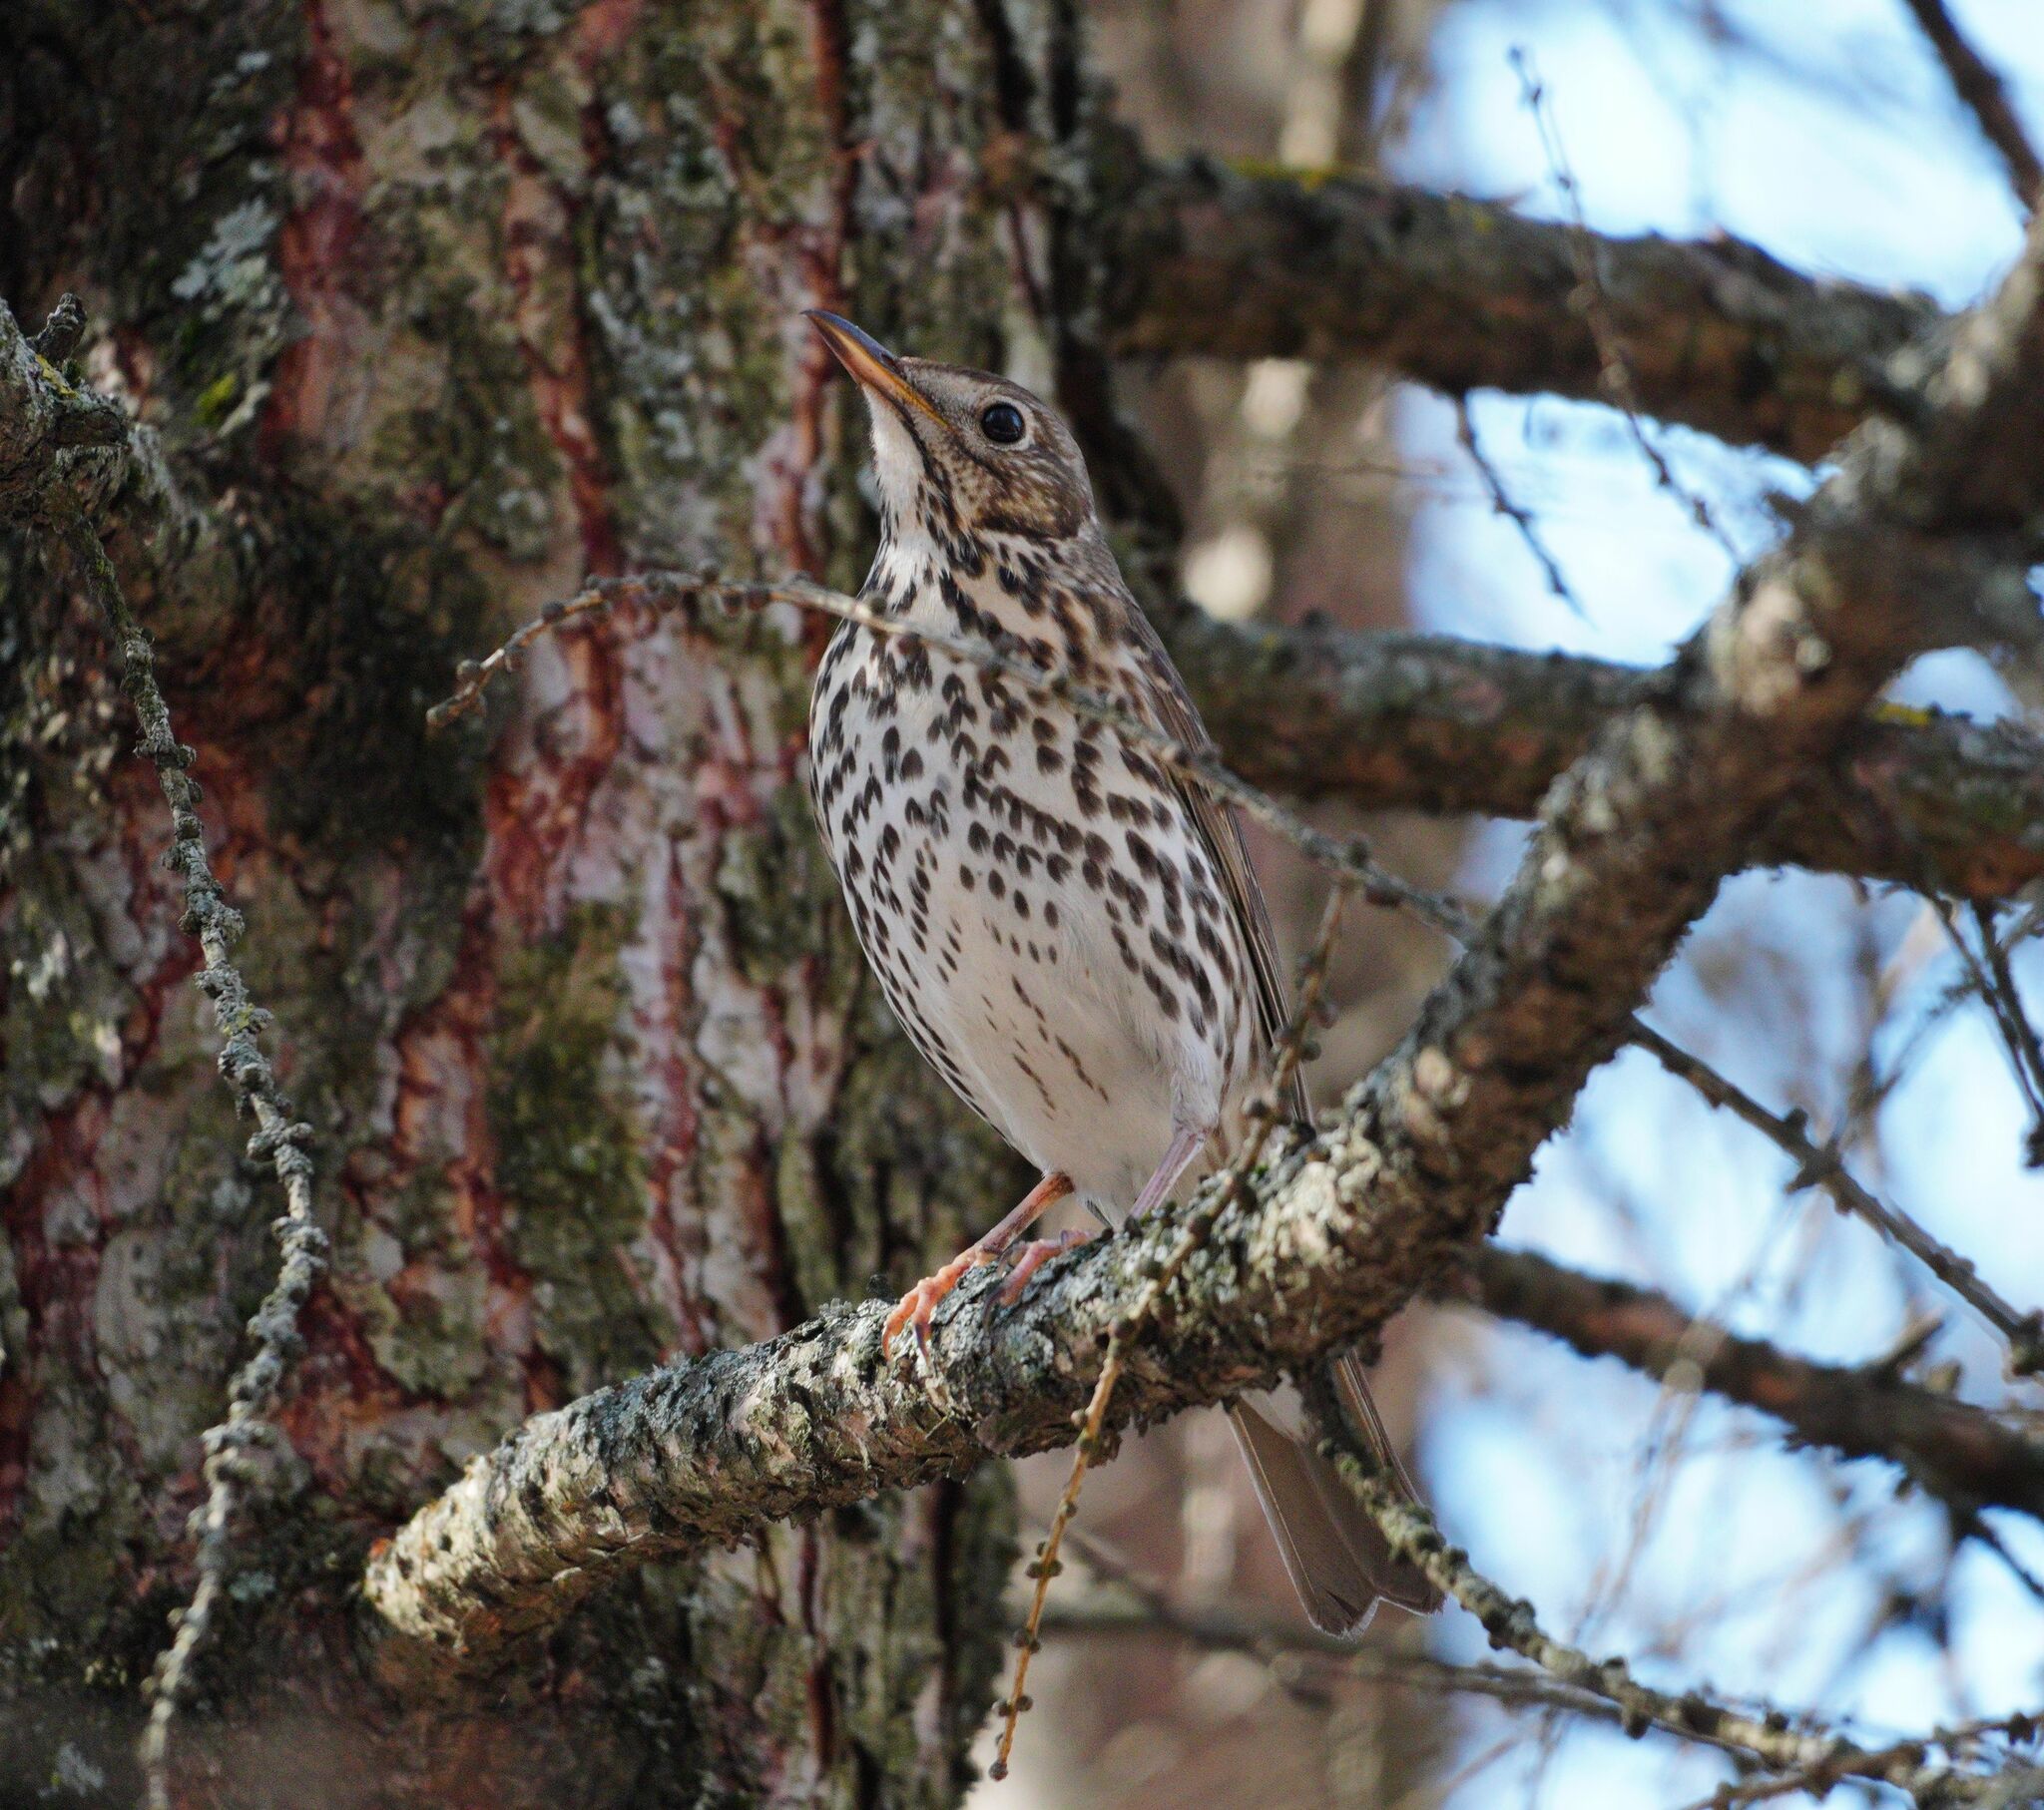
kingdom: Animalia
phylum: Chordata
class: Aves
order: Passeriformes
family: Turdidae
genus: Turdus
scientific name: Turdus philomelos
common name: Song thrush
